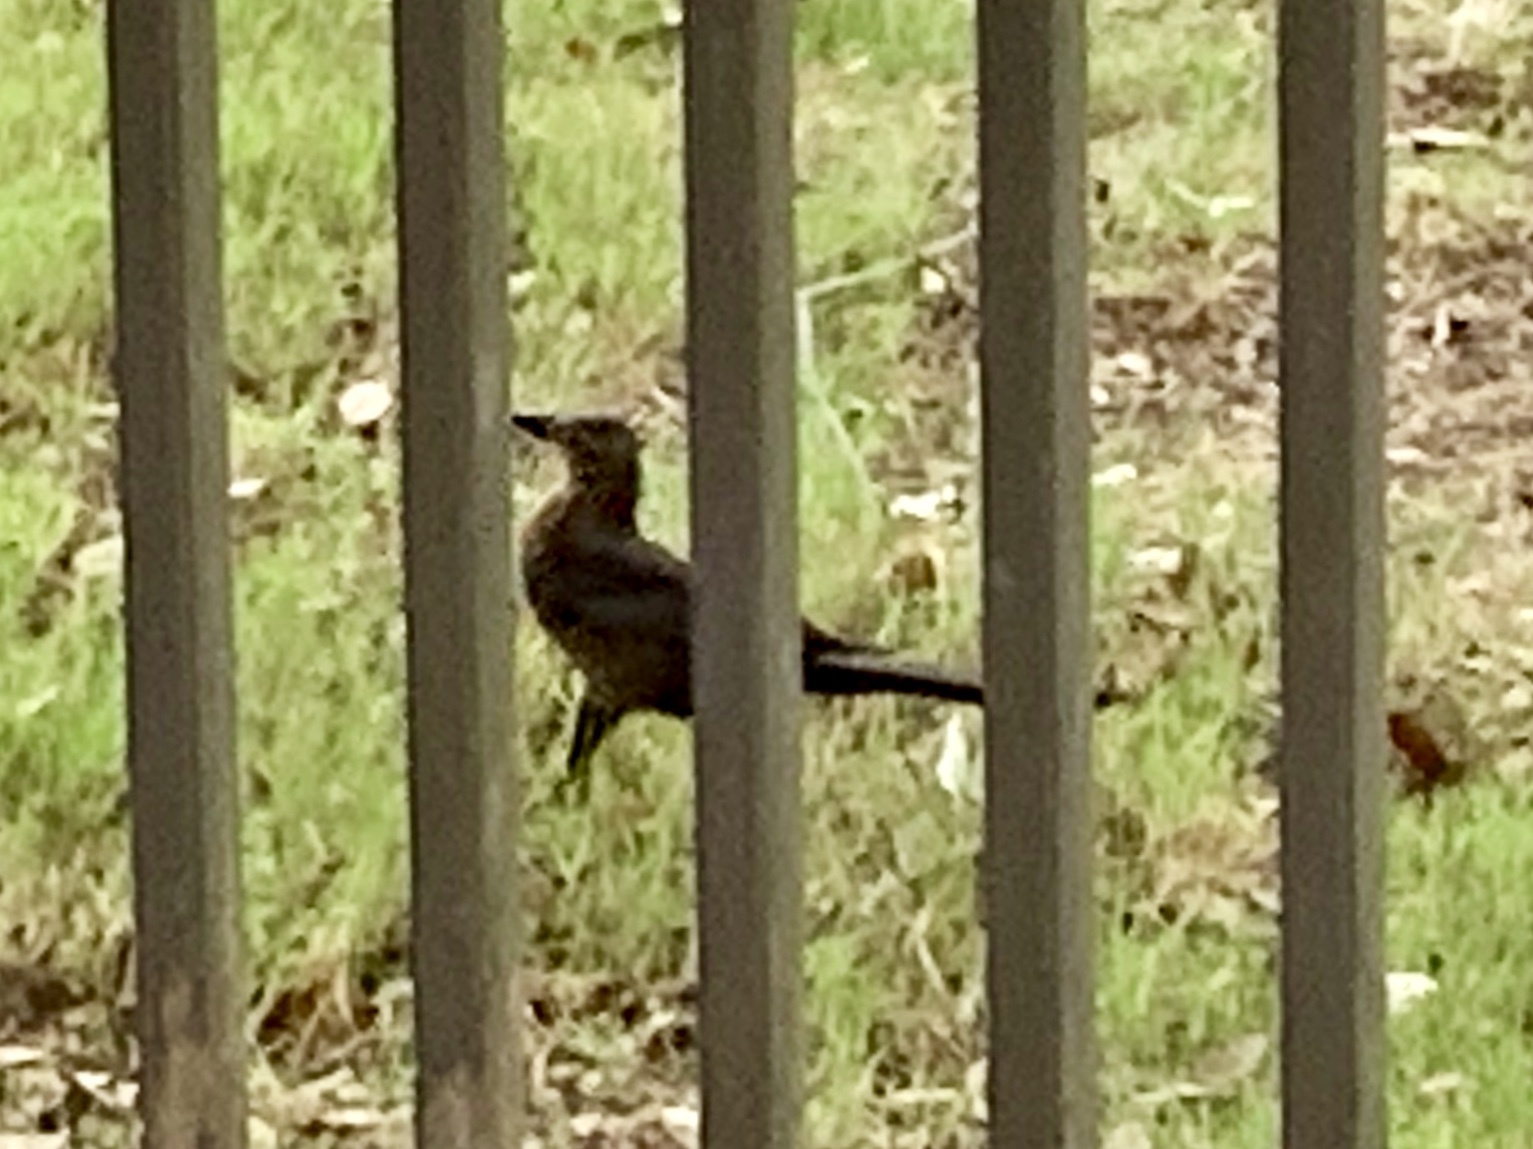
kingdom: Animalia
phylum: Chordata
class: Aves
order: Passeriformes
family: Icteridae
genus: Quiscalus
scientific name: Quiscalus mexicanus
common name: Great-tailed grackle
